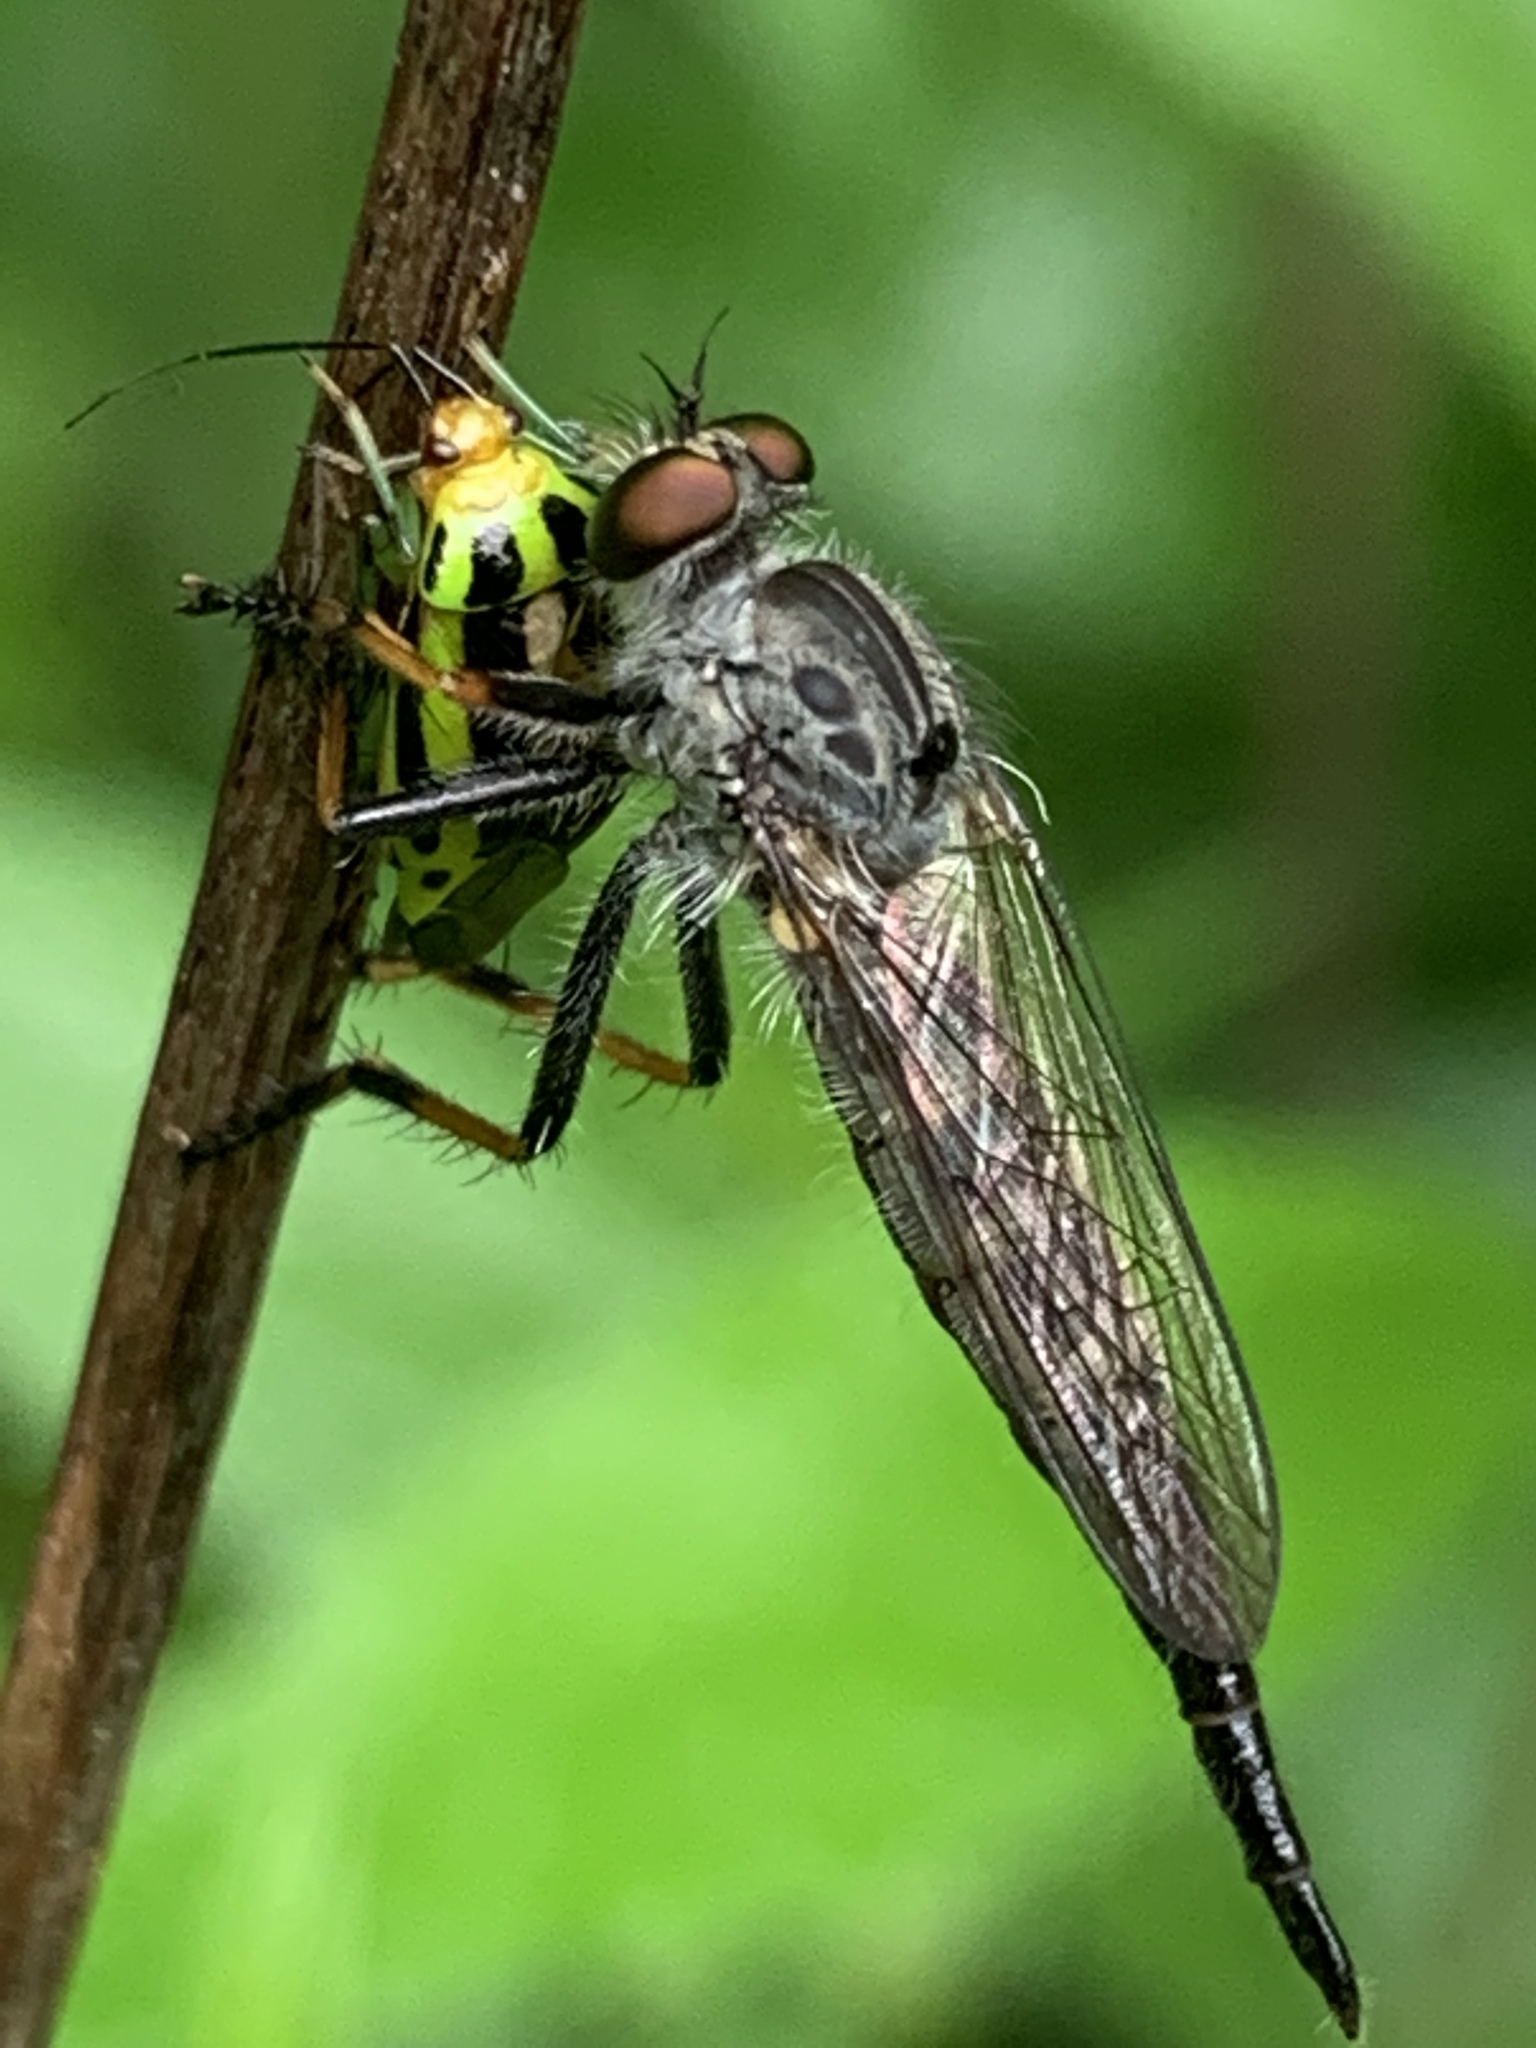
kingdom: Animalia
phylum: Arthropoda
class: Insecta
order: Diptera
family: Asilidae
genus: Neoitamus
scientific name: Neoitamus orphne
